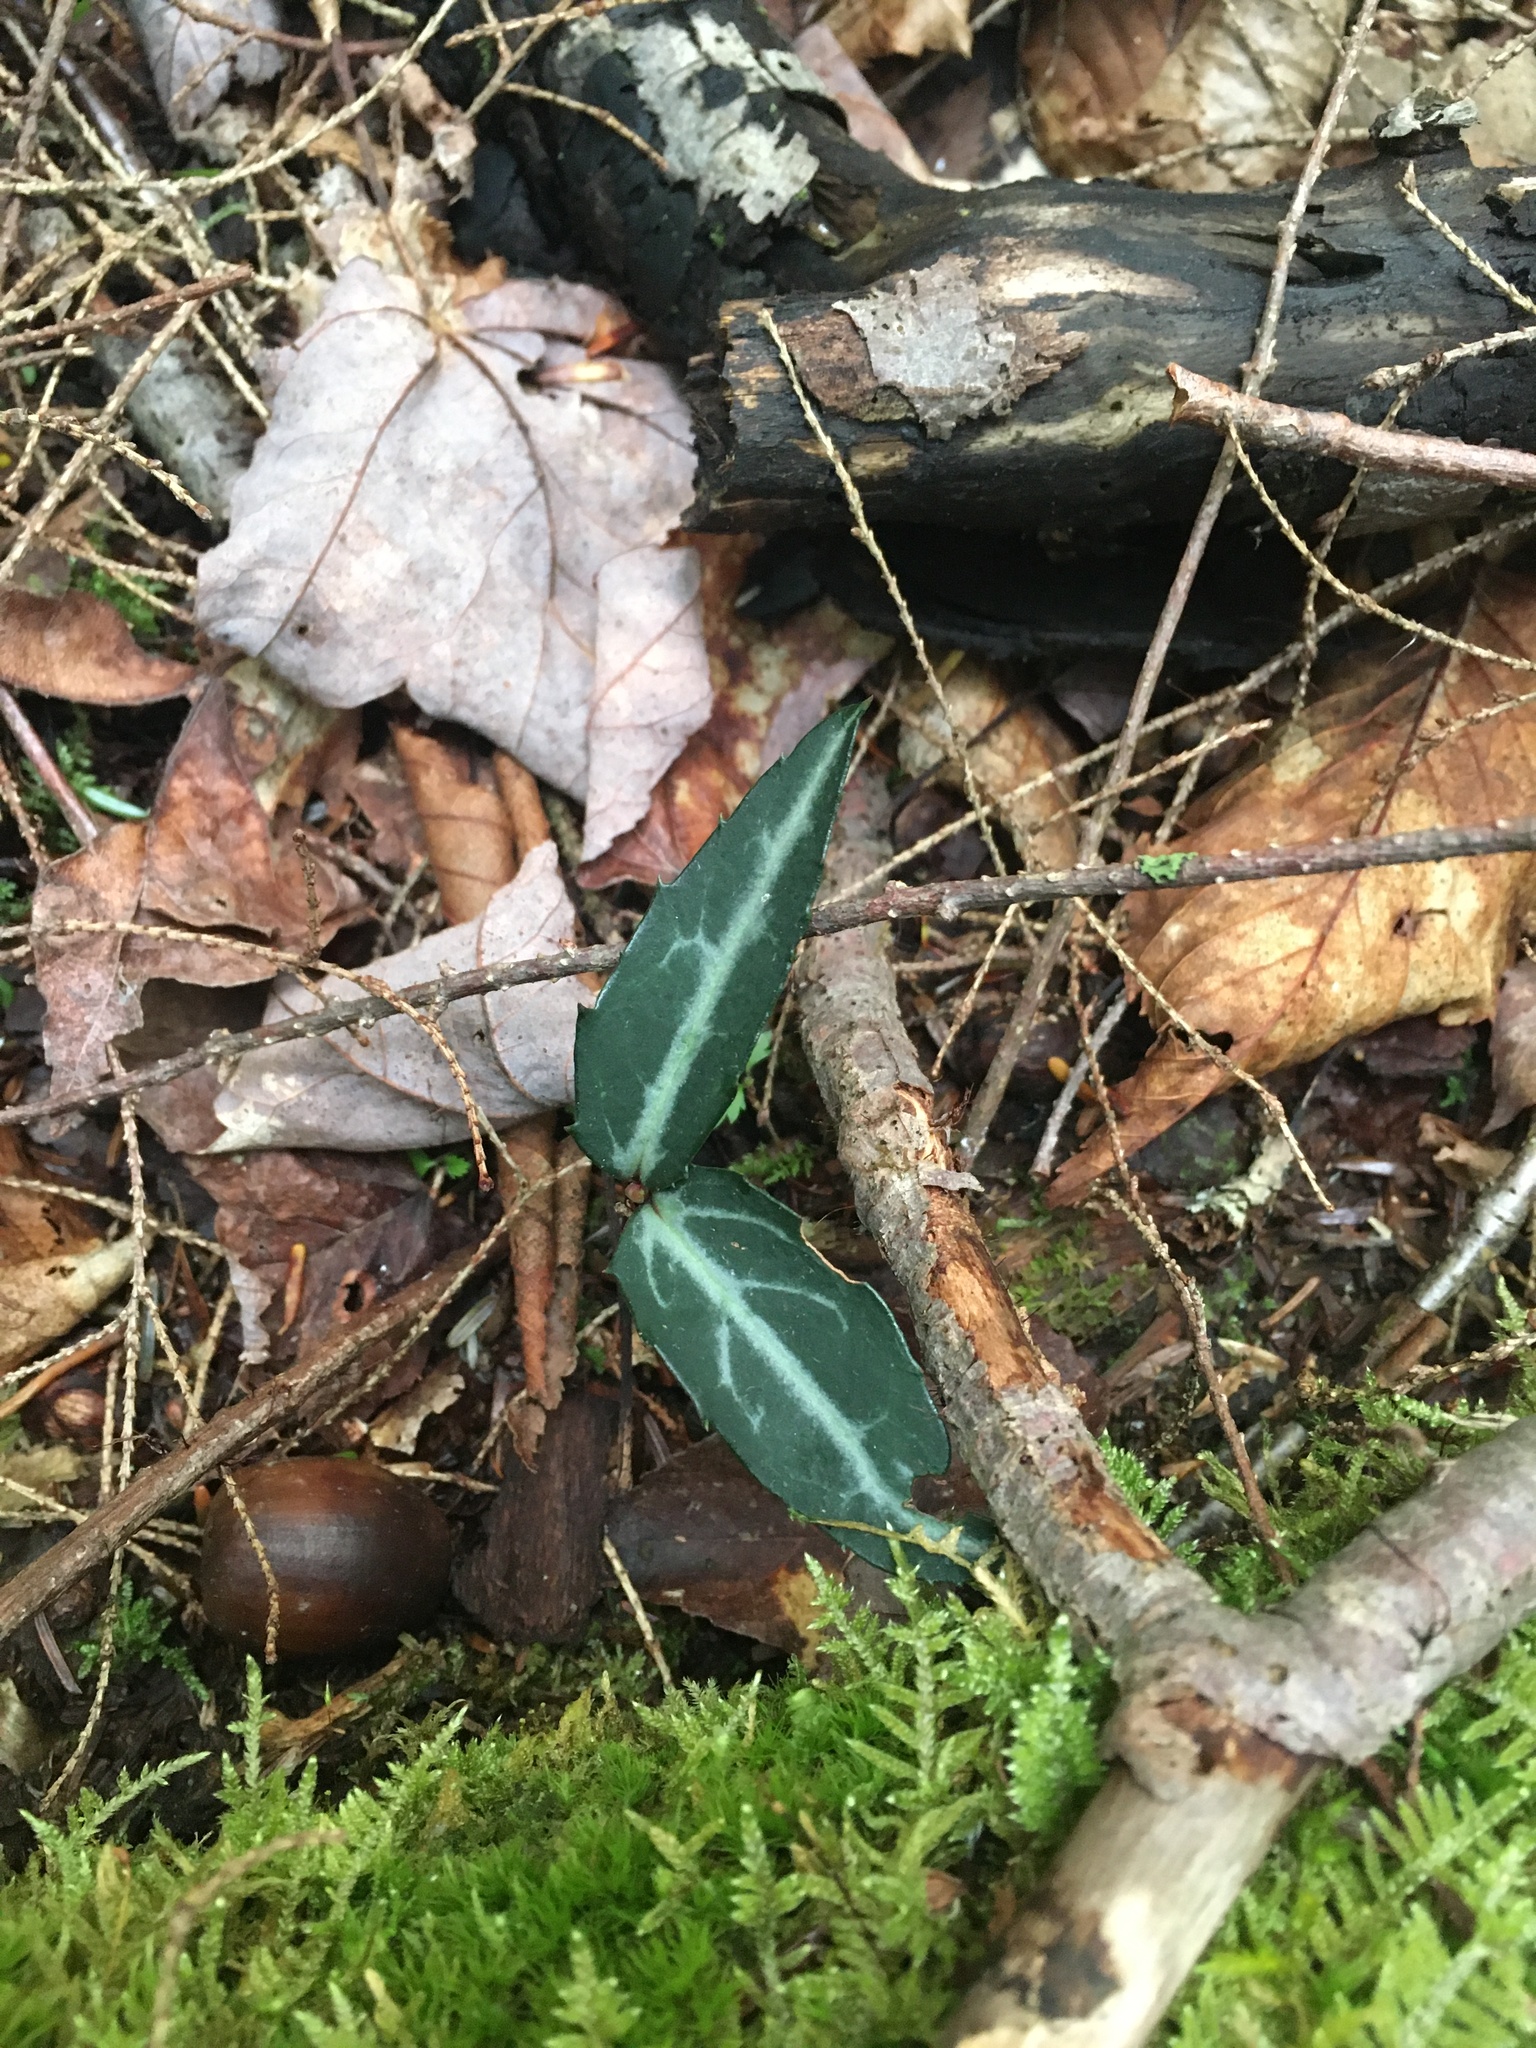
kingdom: Plantae
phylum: Tracheophyta
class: Magnoliopsida
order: Ericales
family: Ericaceae
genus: Chimaphila
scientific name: Chimaphila maculata
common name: Spotted pipsissewa
